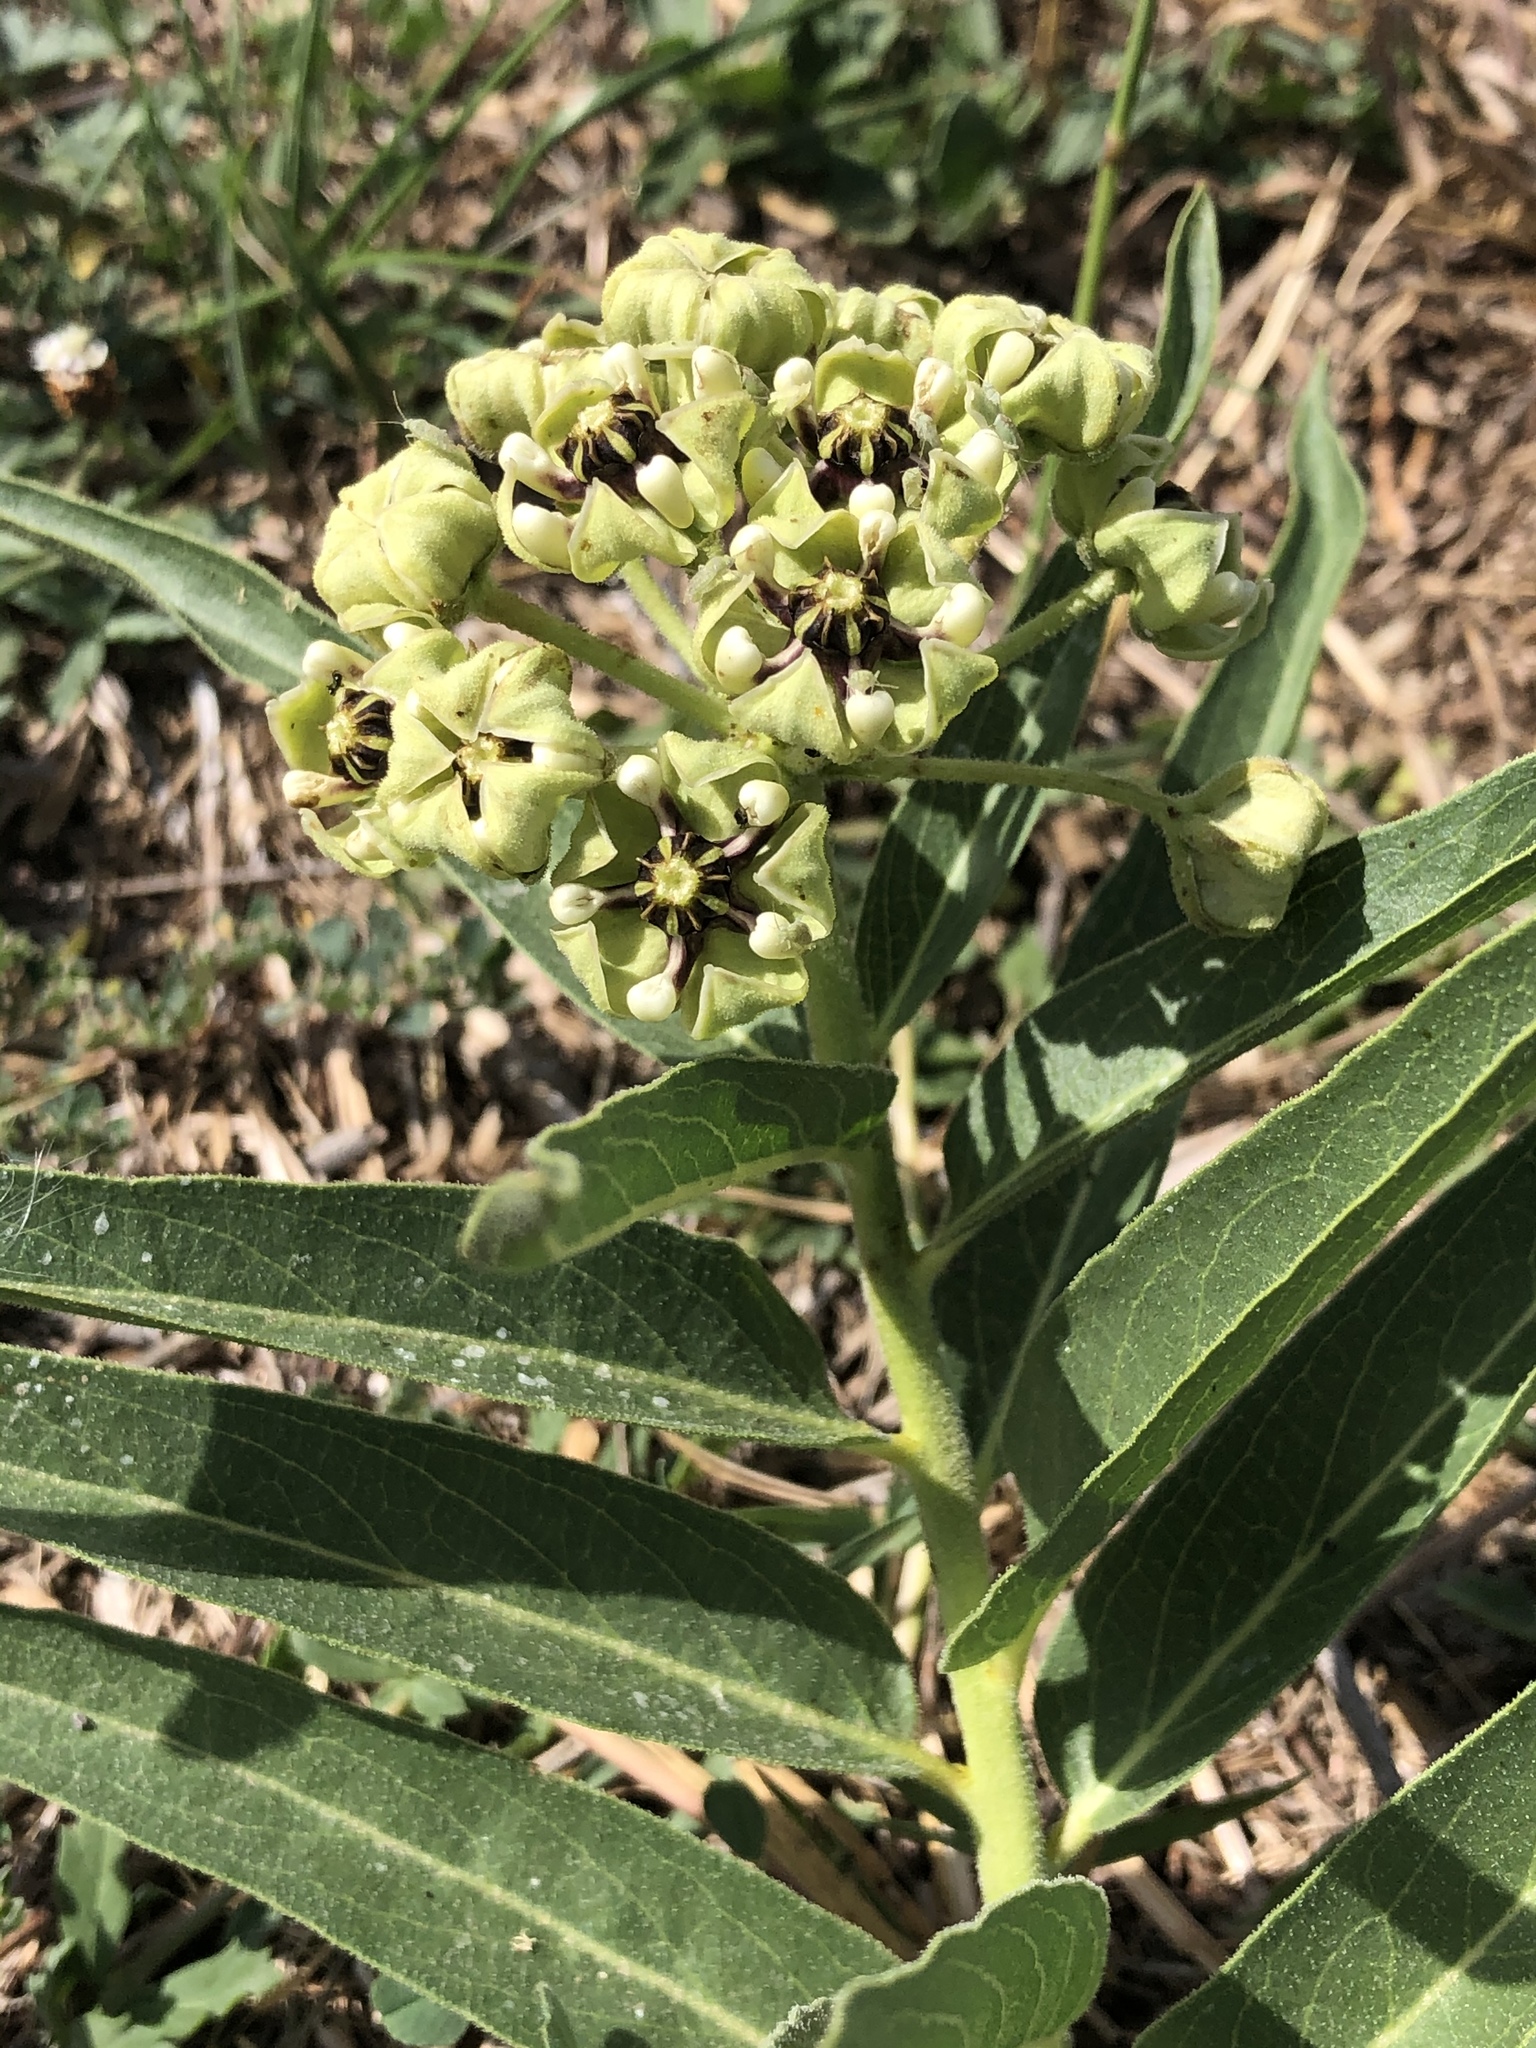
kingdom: Plantae
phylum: Tracheophyta
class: Magnoliopsida
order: Gentianales
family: Apocynaceae
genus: Asclepias
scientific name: Asclepias asperula
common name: Antelope horns
